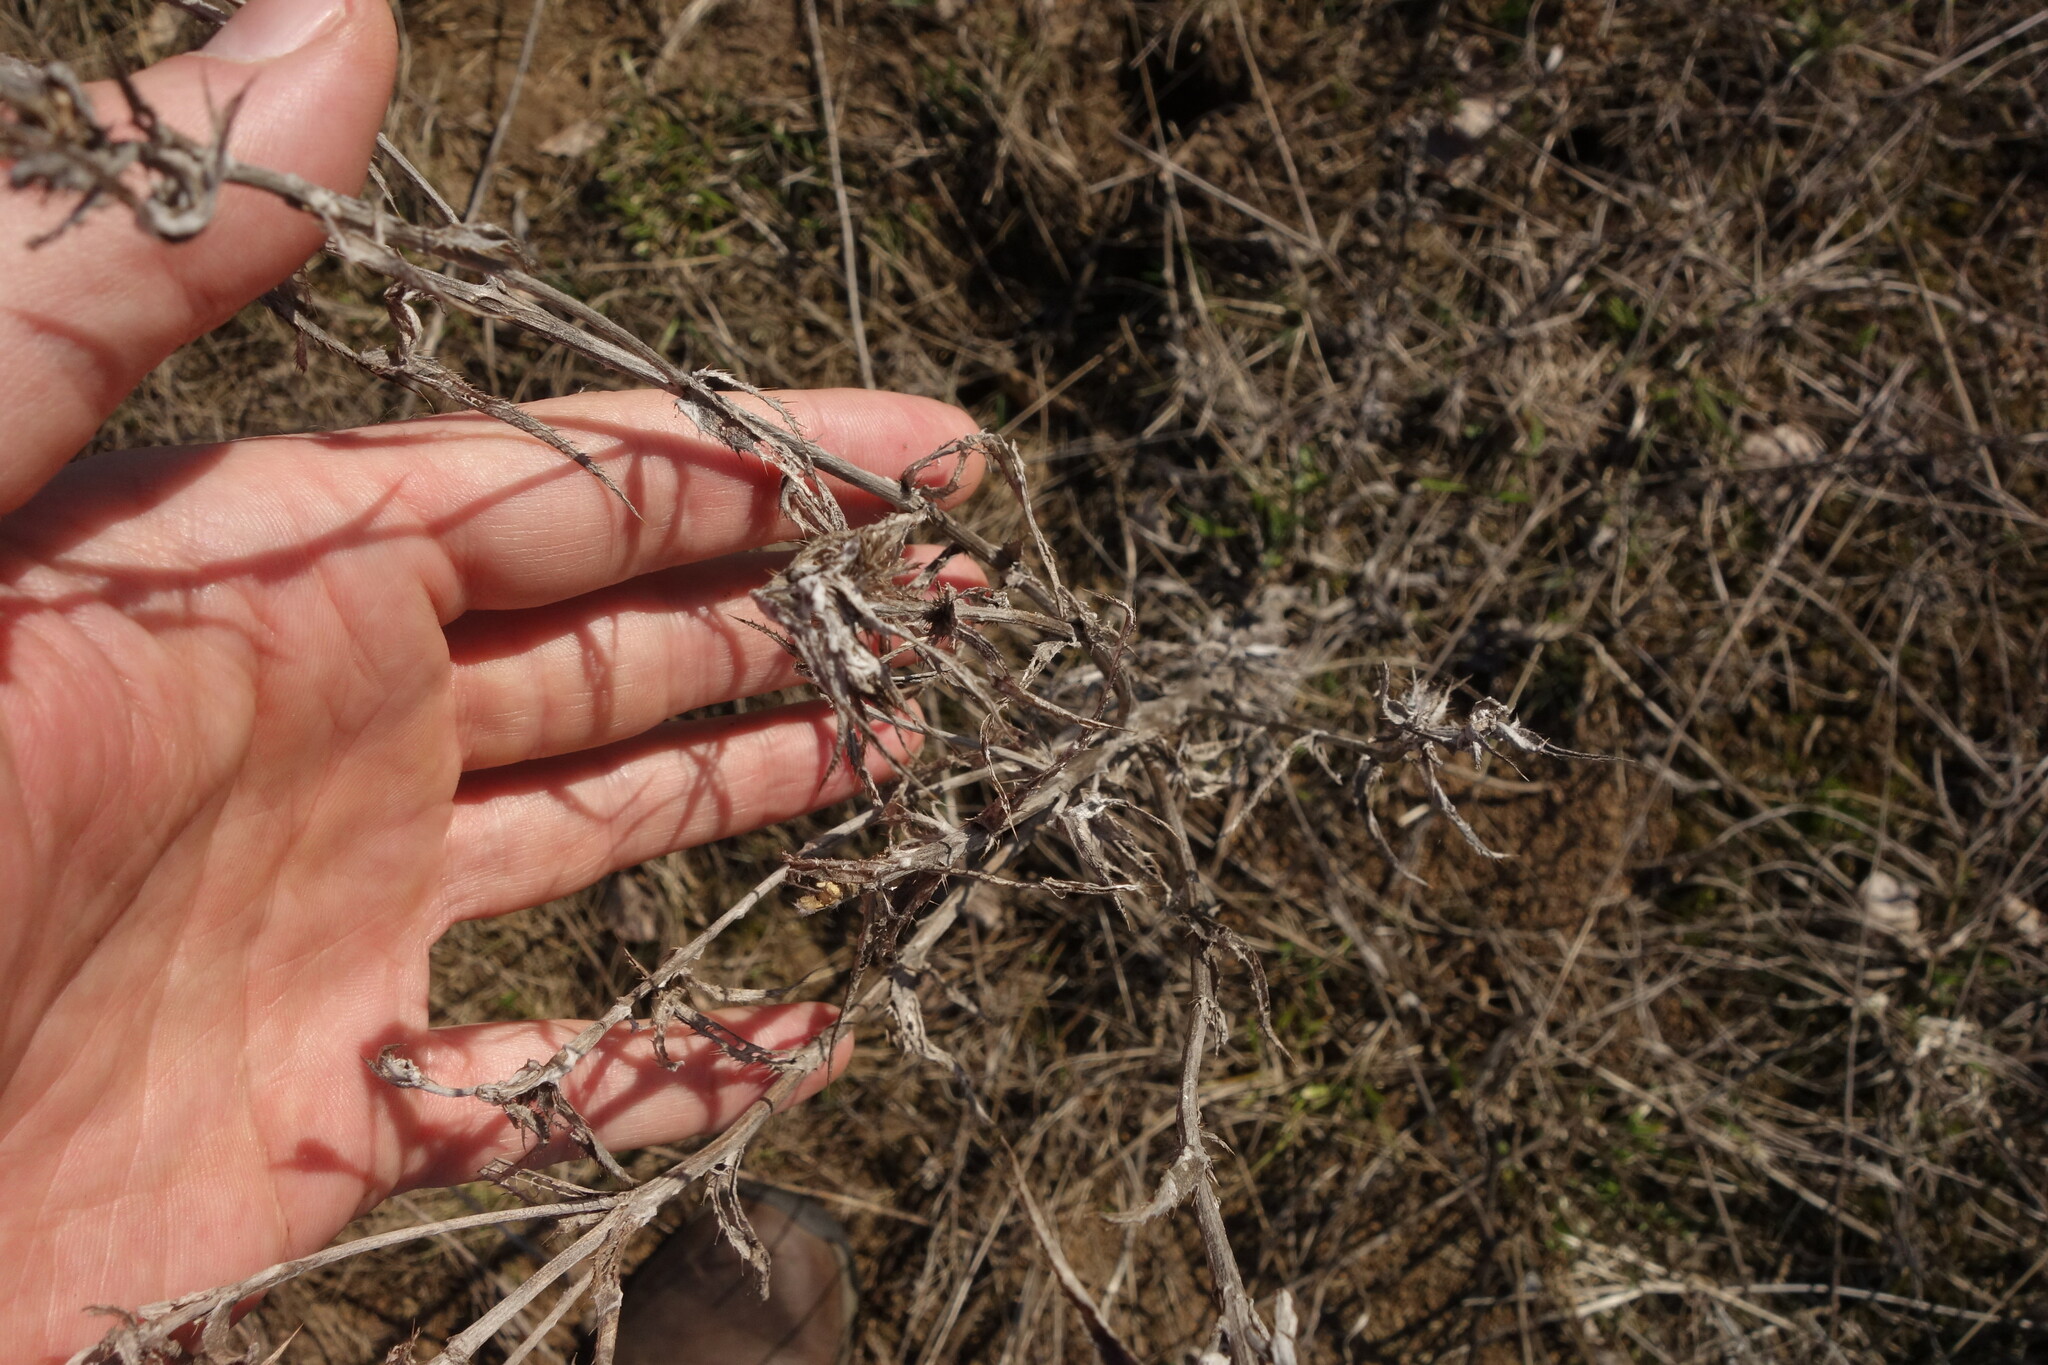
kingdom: Plantae
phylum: Tracheophyta
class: Magnoliopsida
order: Asterales
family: Asteraceae
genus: Carlina
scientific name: Carlina biebersteinii
